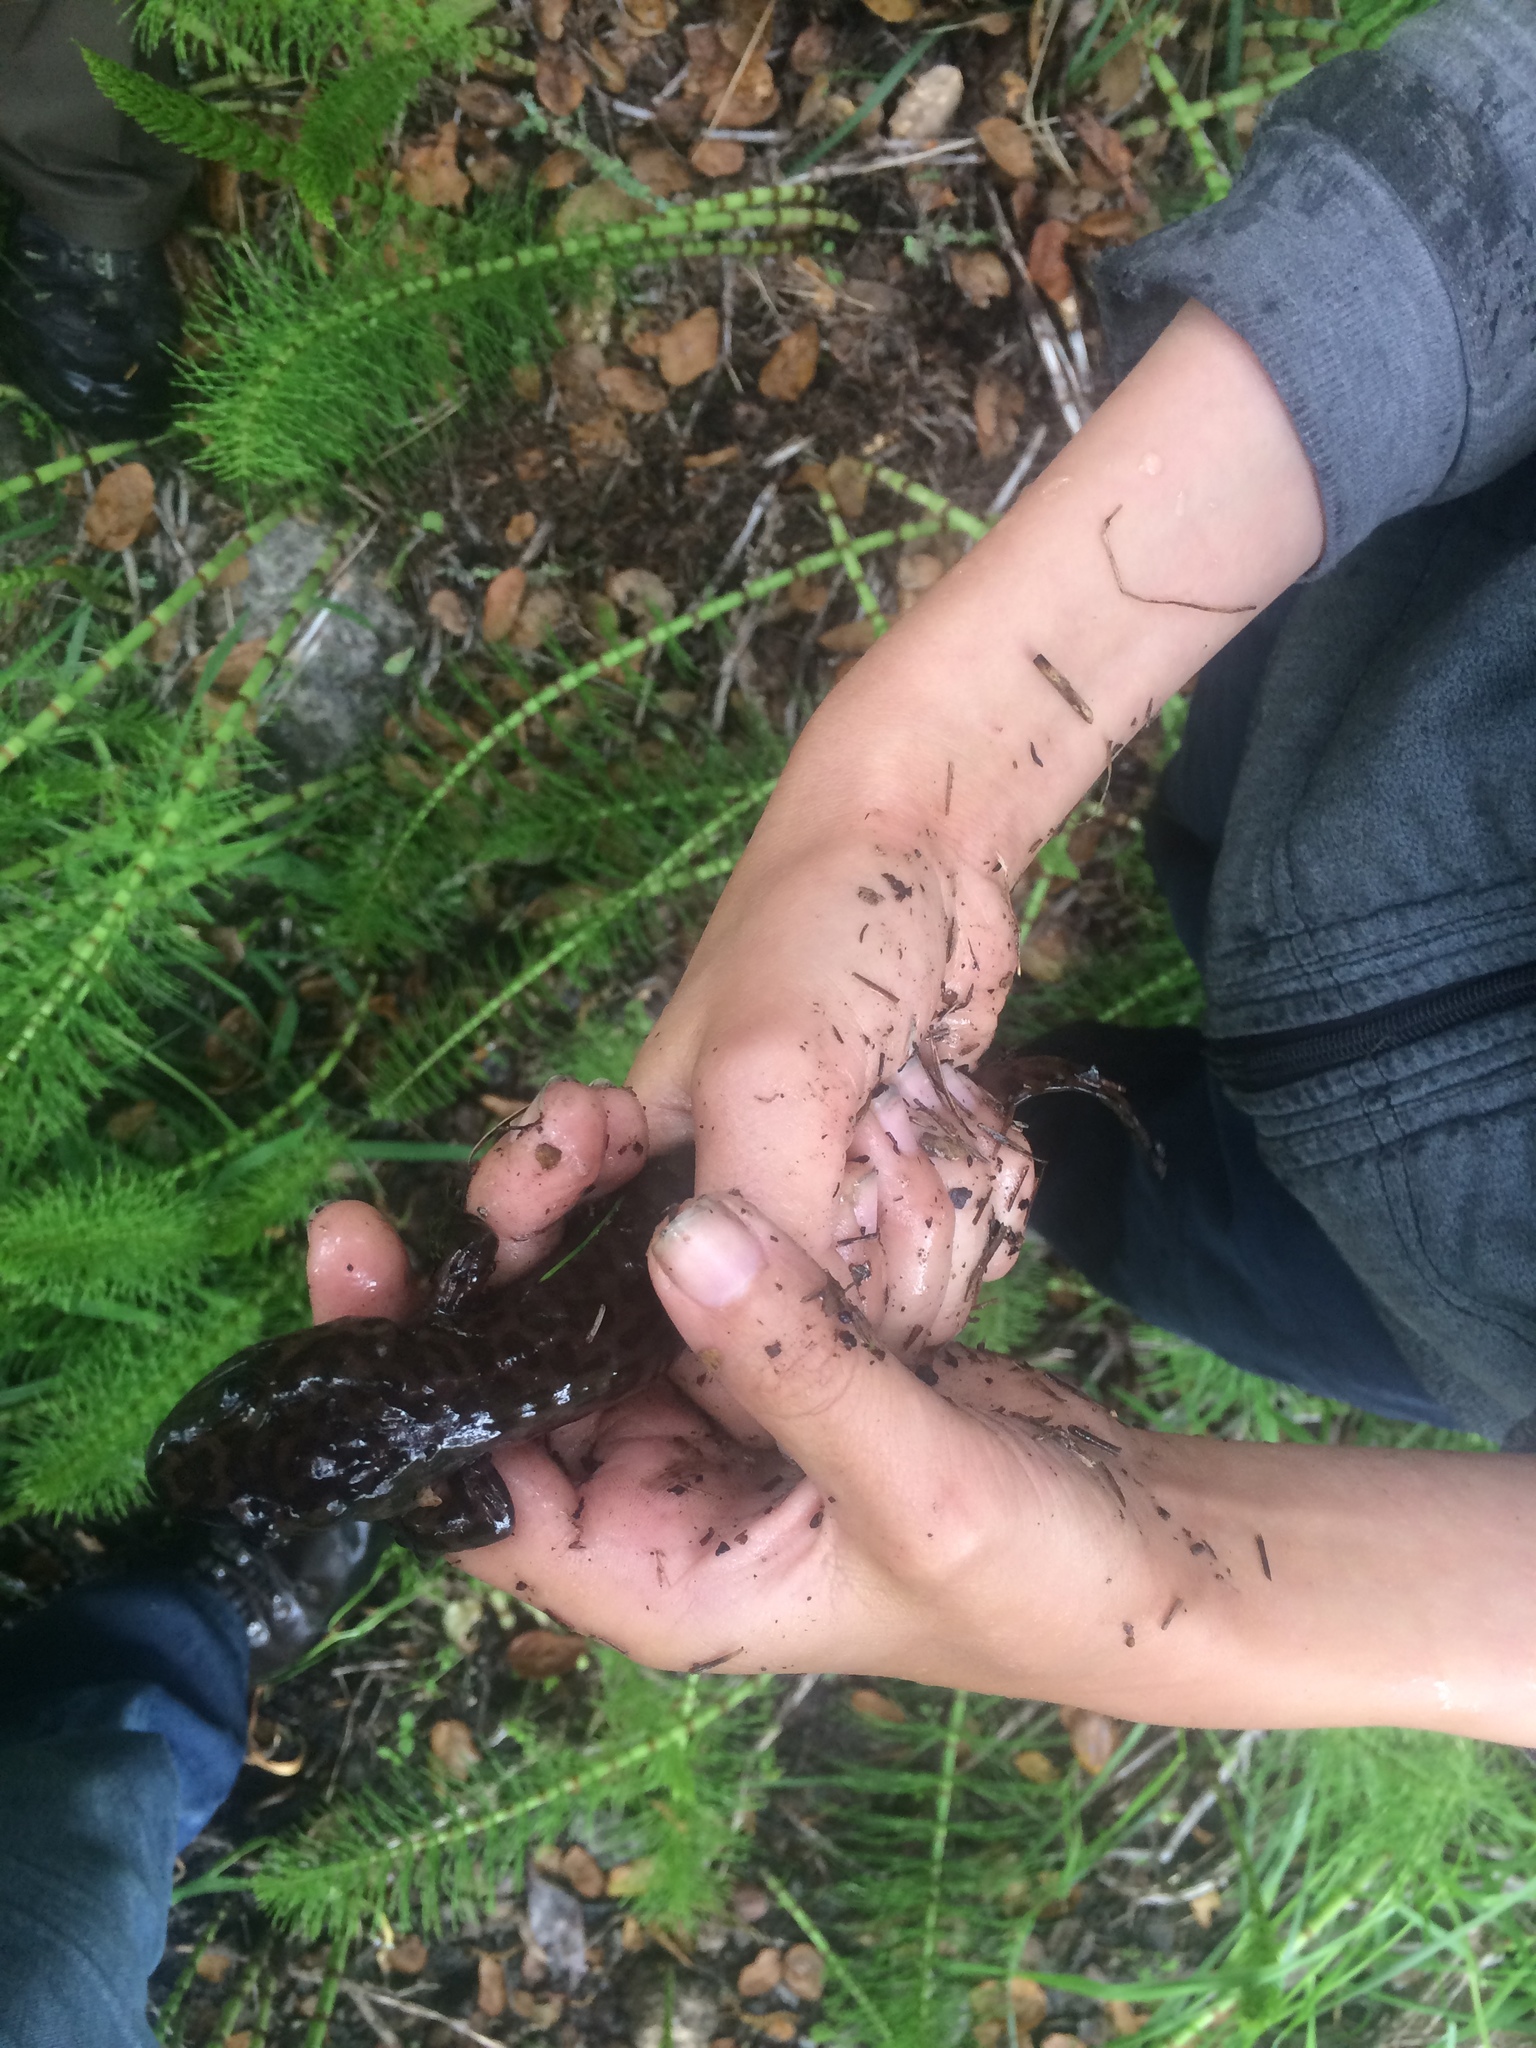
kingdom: Animalia
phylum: Chordata
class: Amphibia
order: Caudata
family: Ambystomatidae
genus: Dicamptodon
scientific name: Dicamptodon ensatus
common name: California giant salamander
